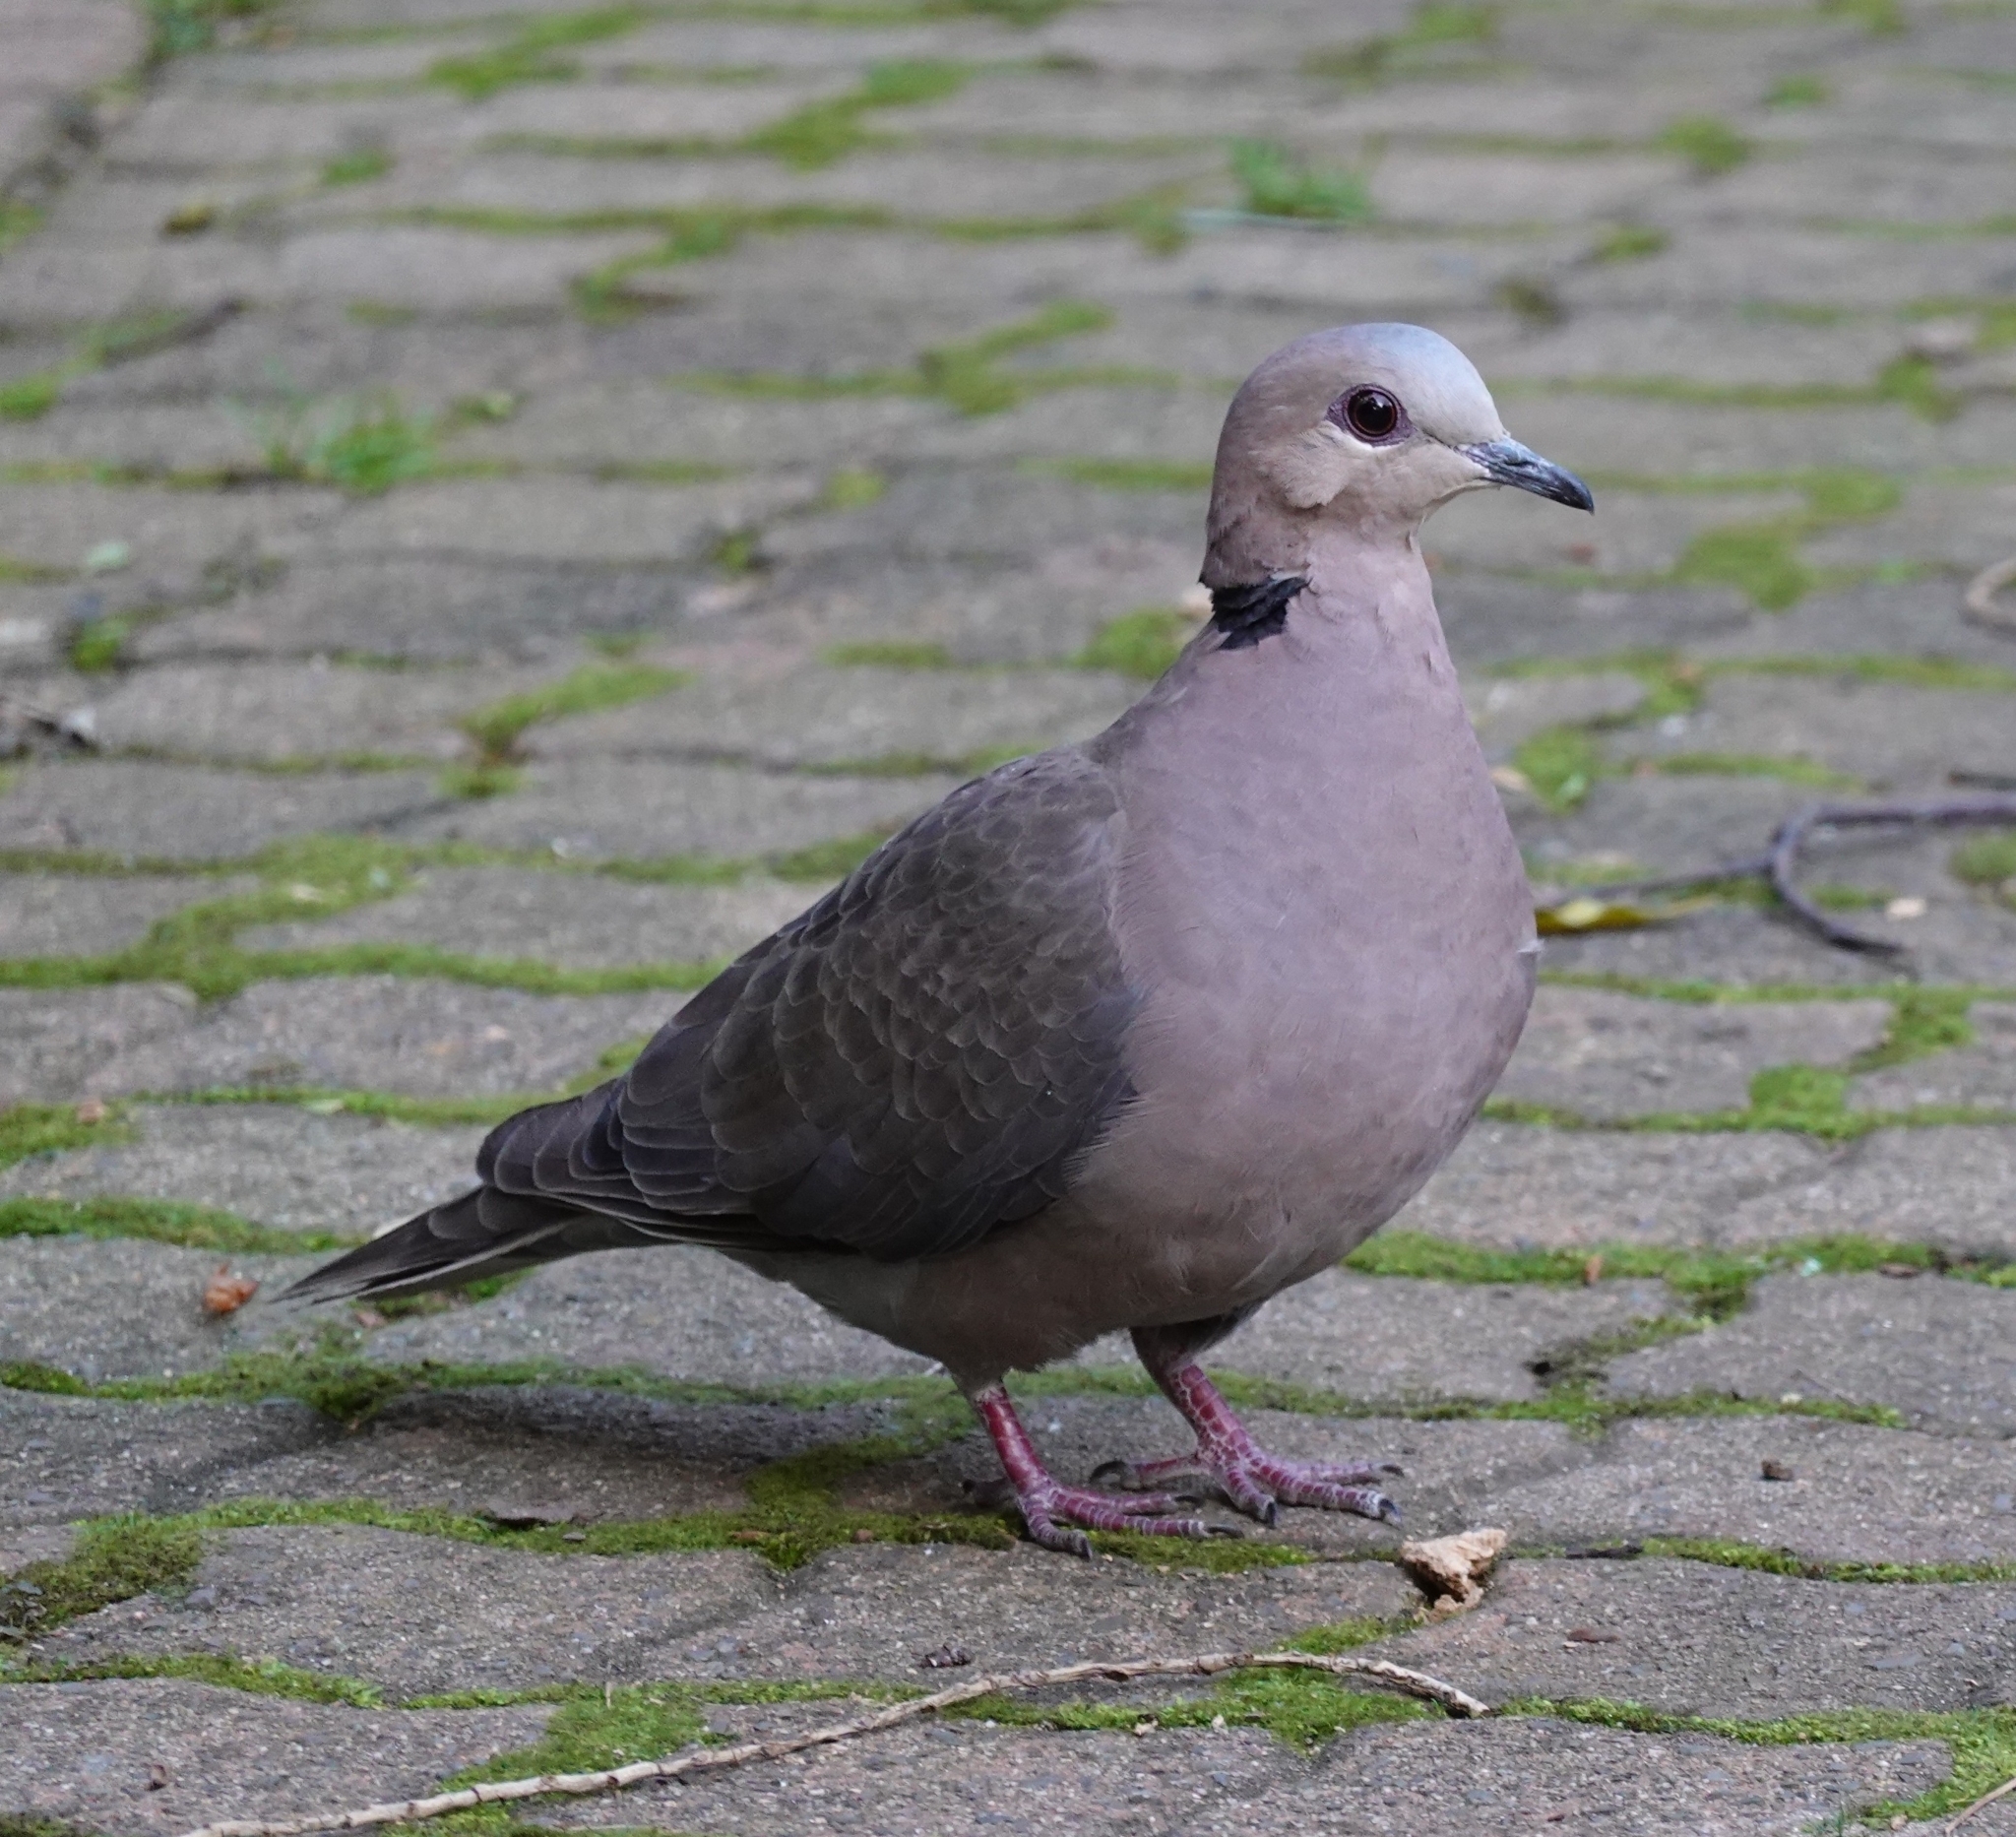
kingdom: Animalia
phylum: Chordata
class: Aves
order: Columbiformes
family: Columbidae
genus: Streptopelia
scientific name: Streptopelia semitorquata
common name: Red-eyed dove
